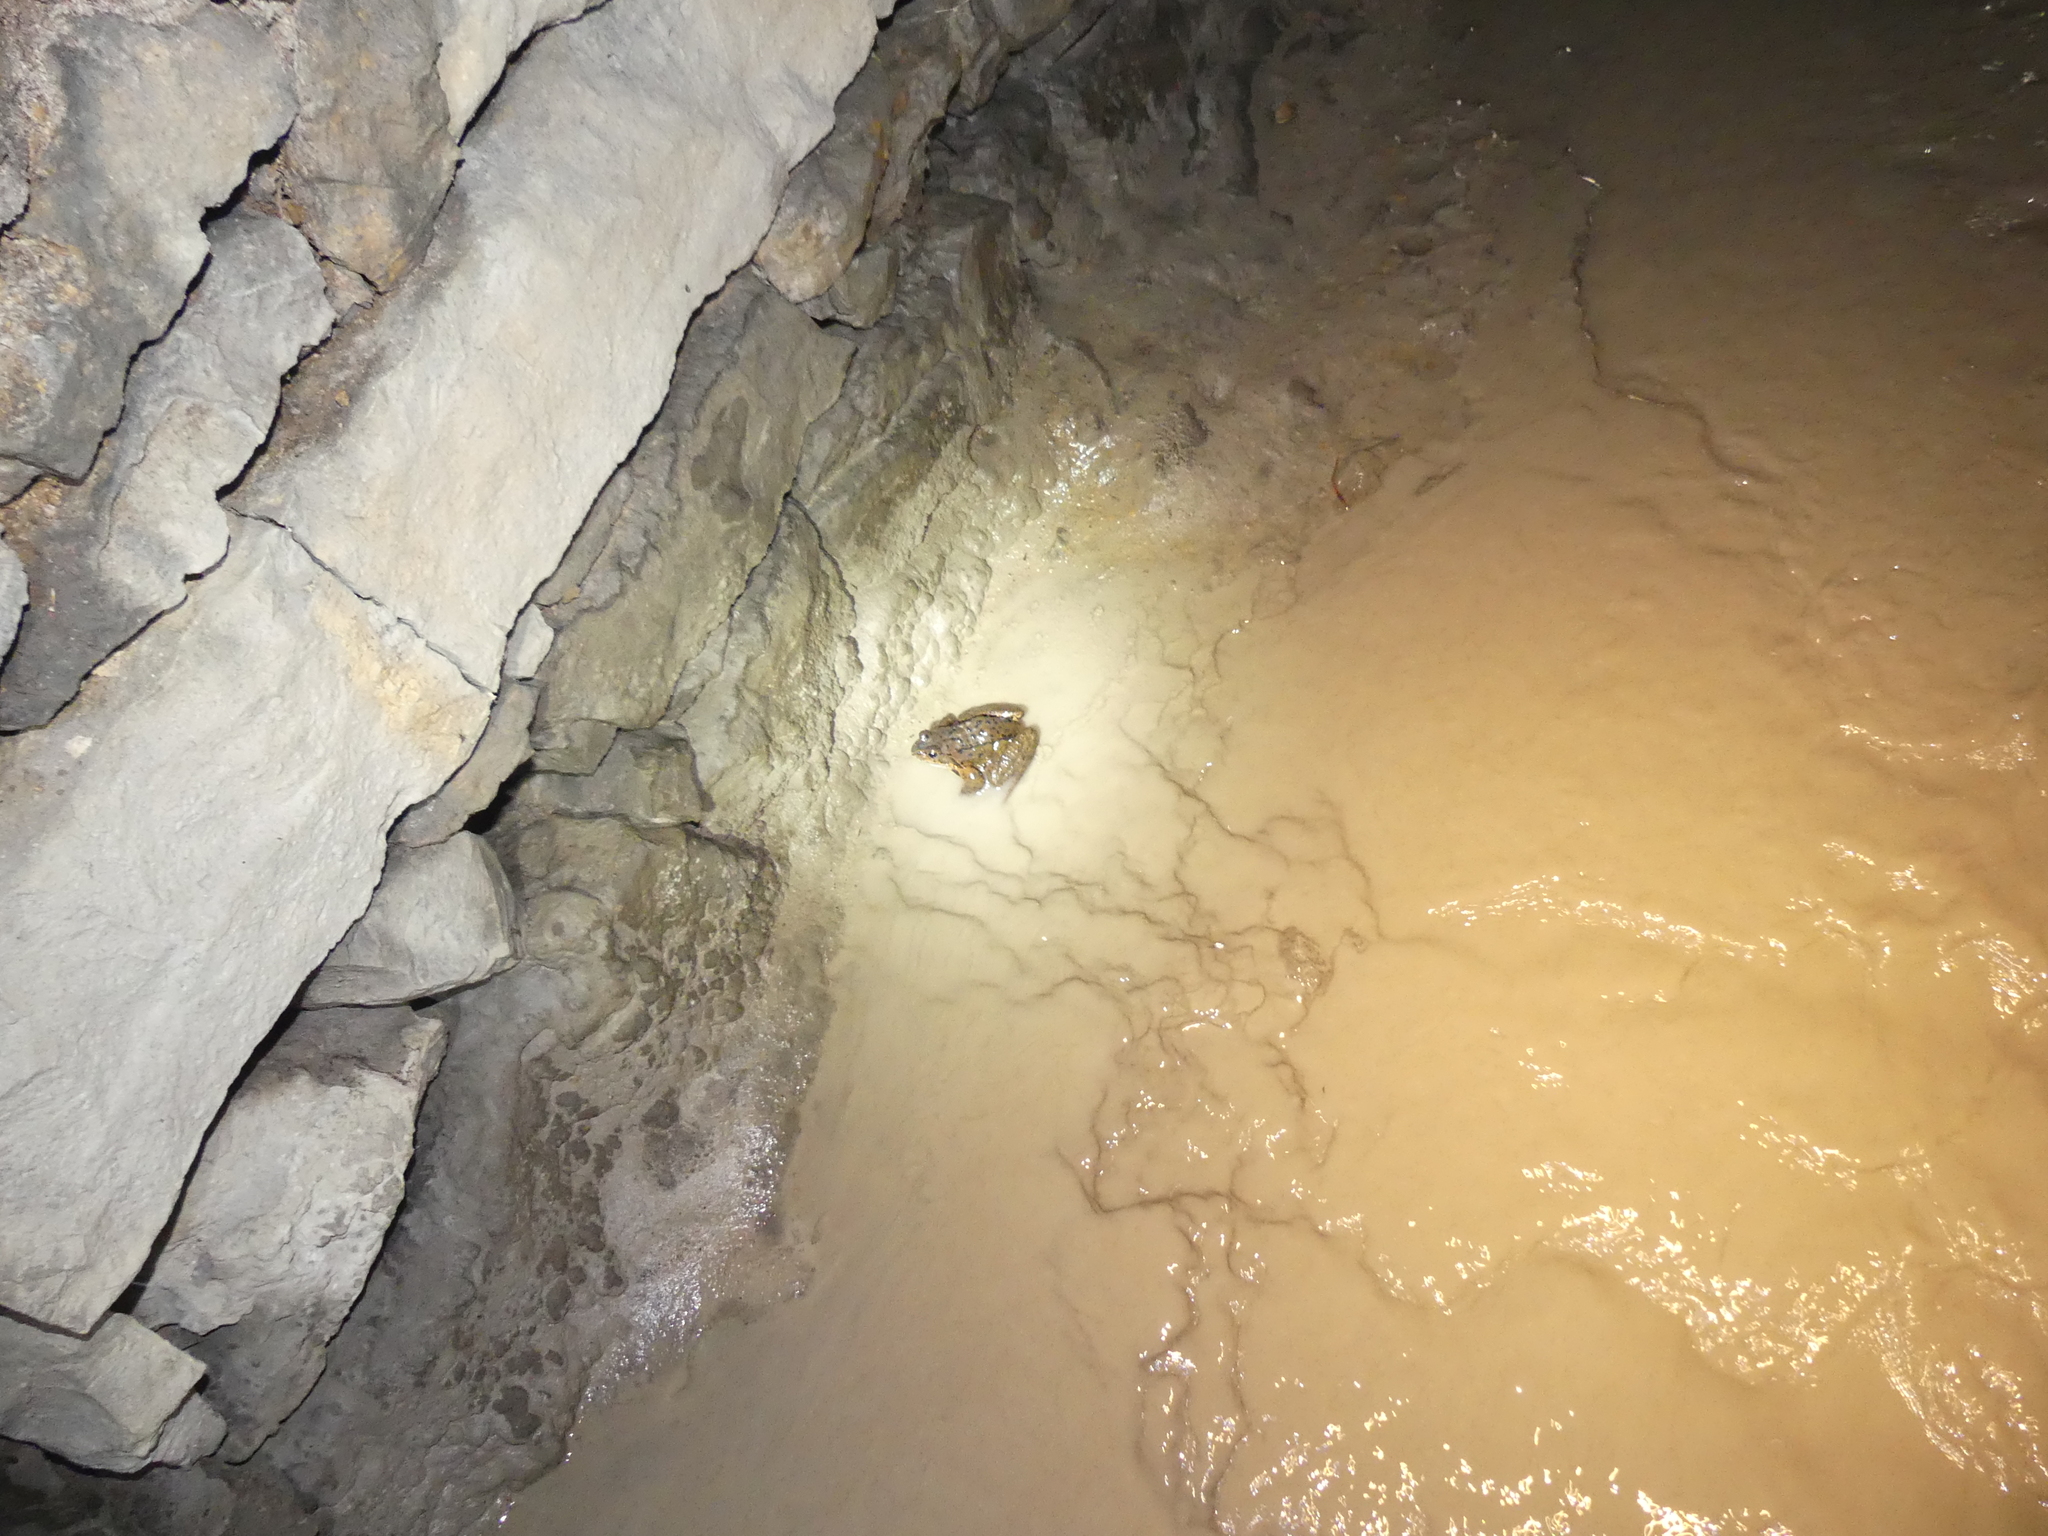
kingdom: Animalia
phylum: Chordata
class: Amphibia
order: Anura
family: Ranidae
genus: Rana
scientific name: Rana temporaria
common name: Common frog
